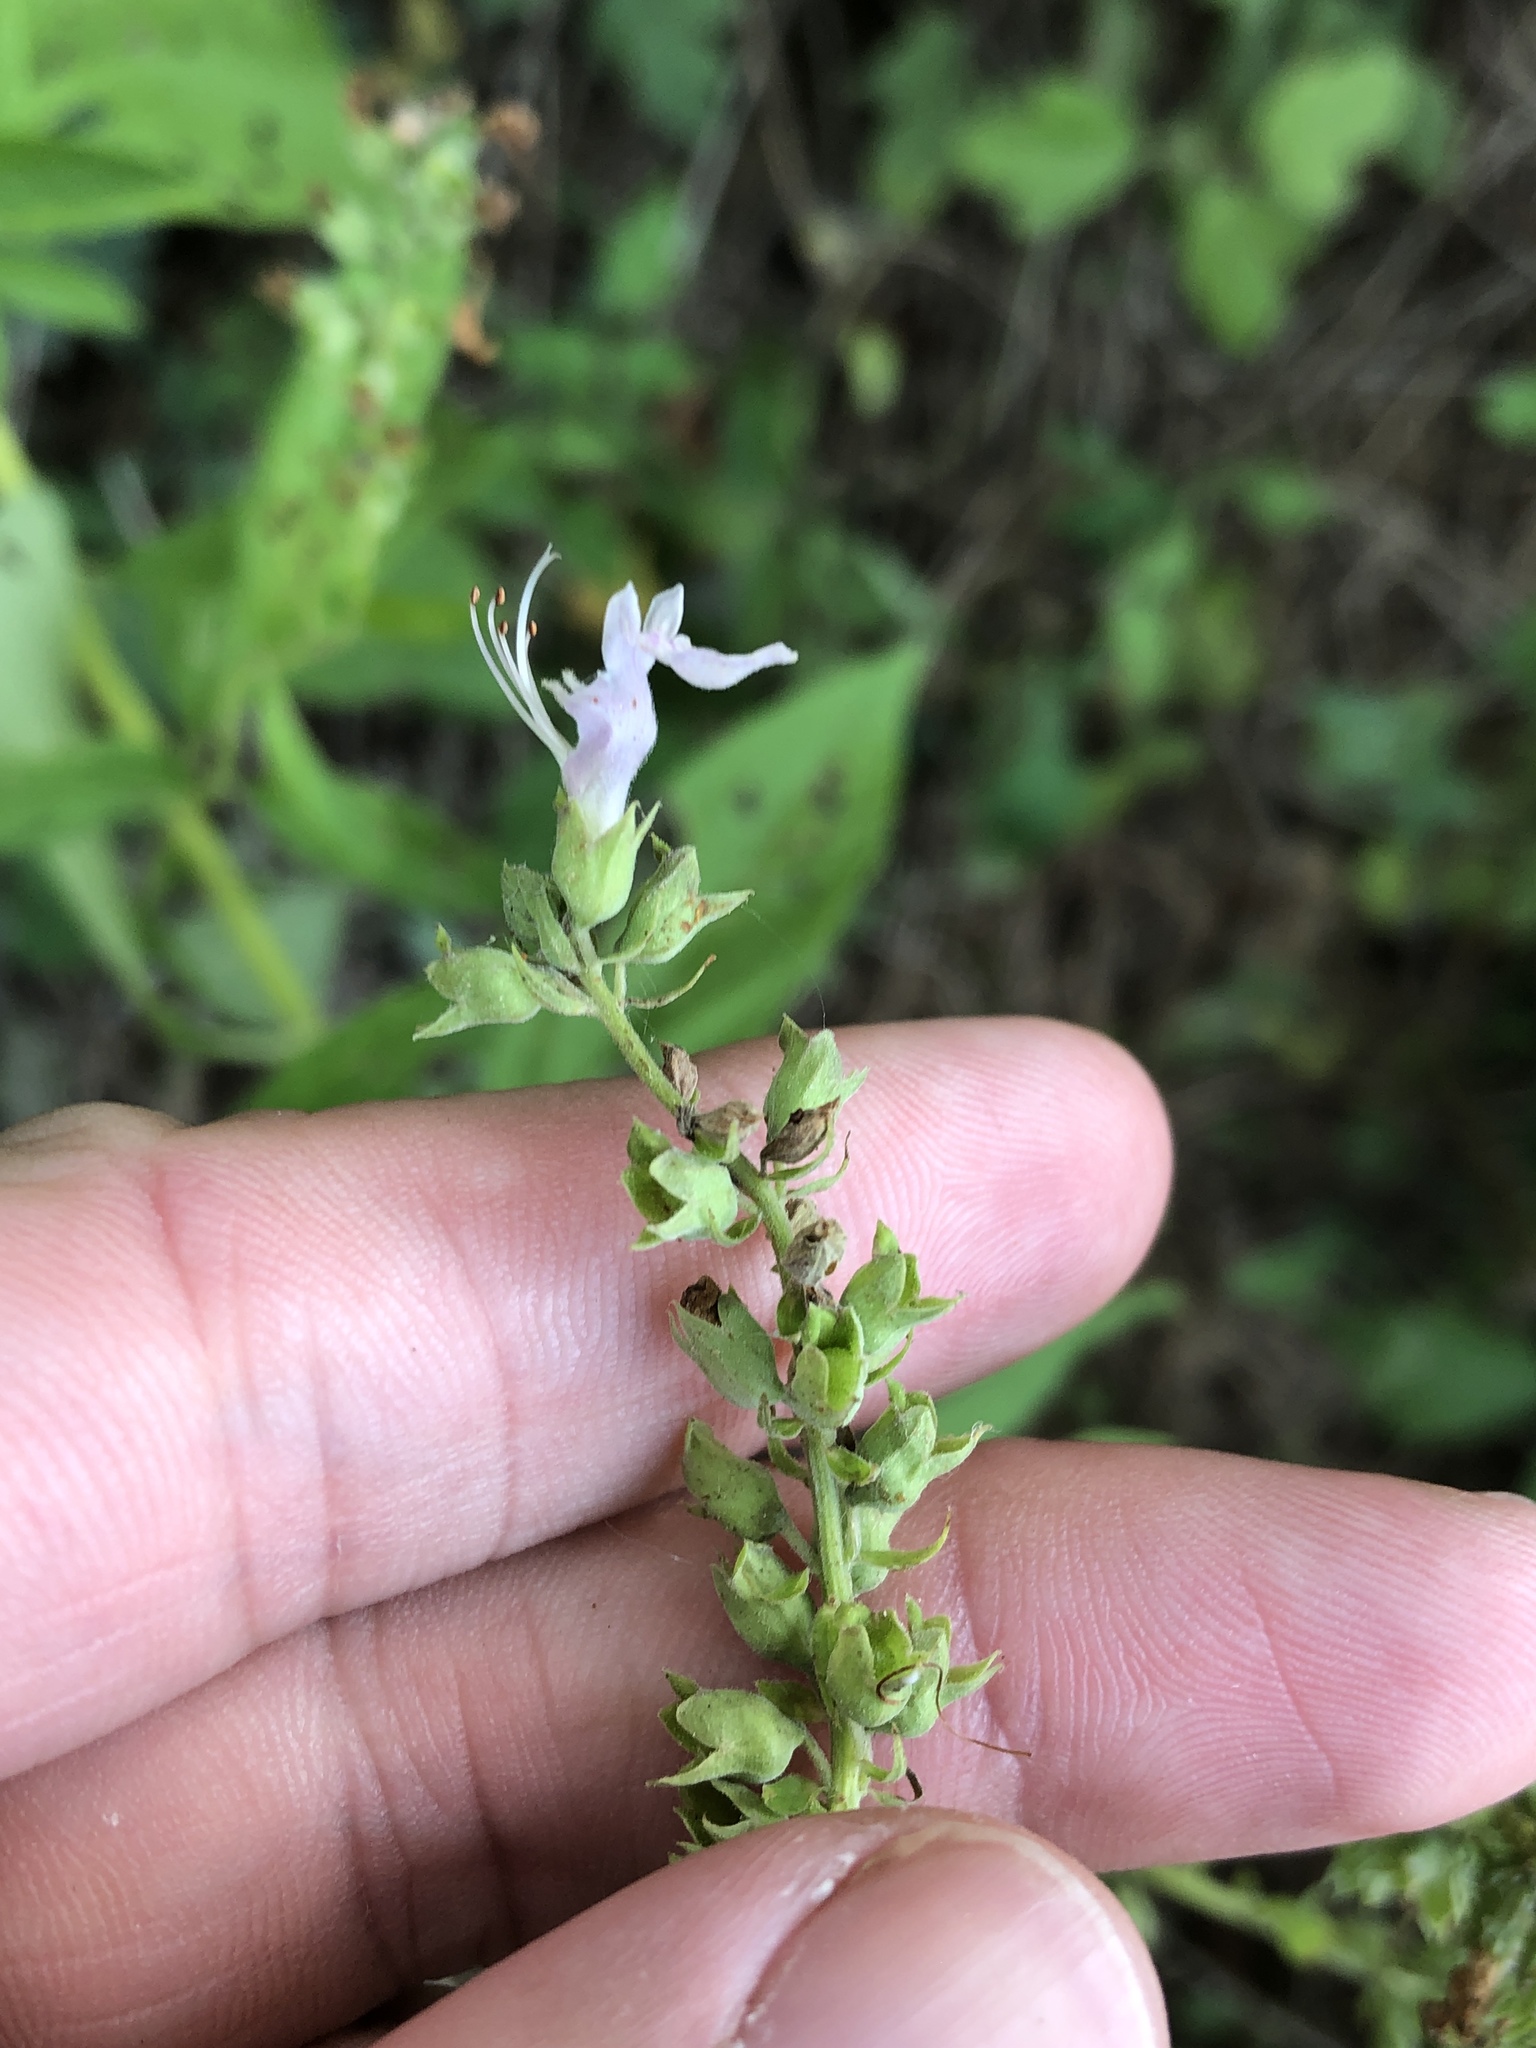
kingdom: Plantae
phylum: Tracheophyta
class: Magnoliopsida
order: Lamiales
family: Lamiaceae
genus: Teucrium
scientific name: Teucrium canadense
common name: American germander
